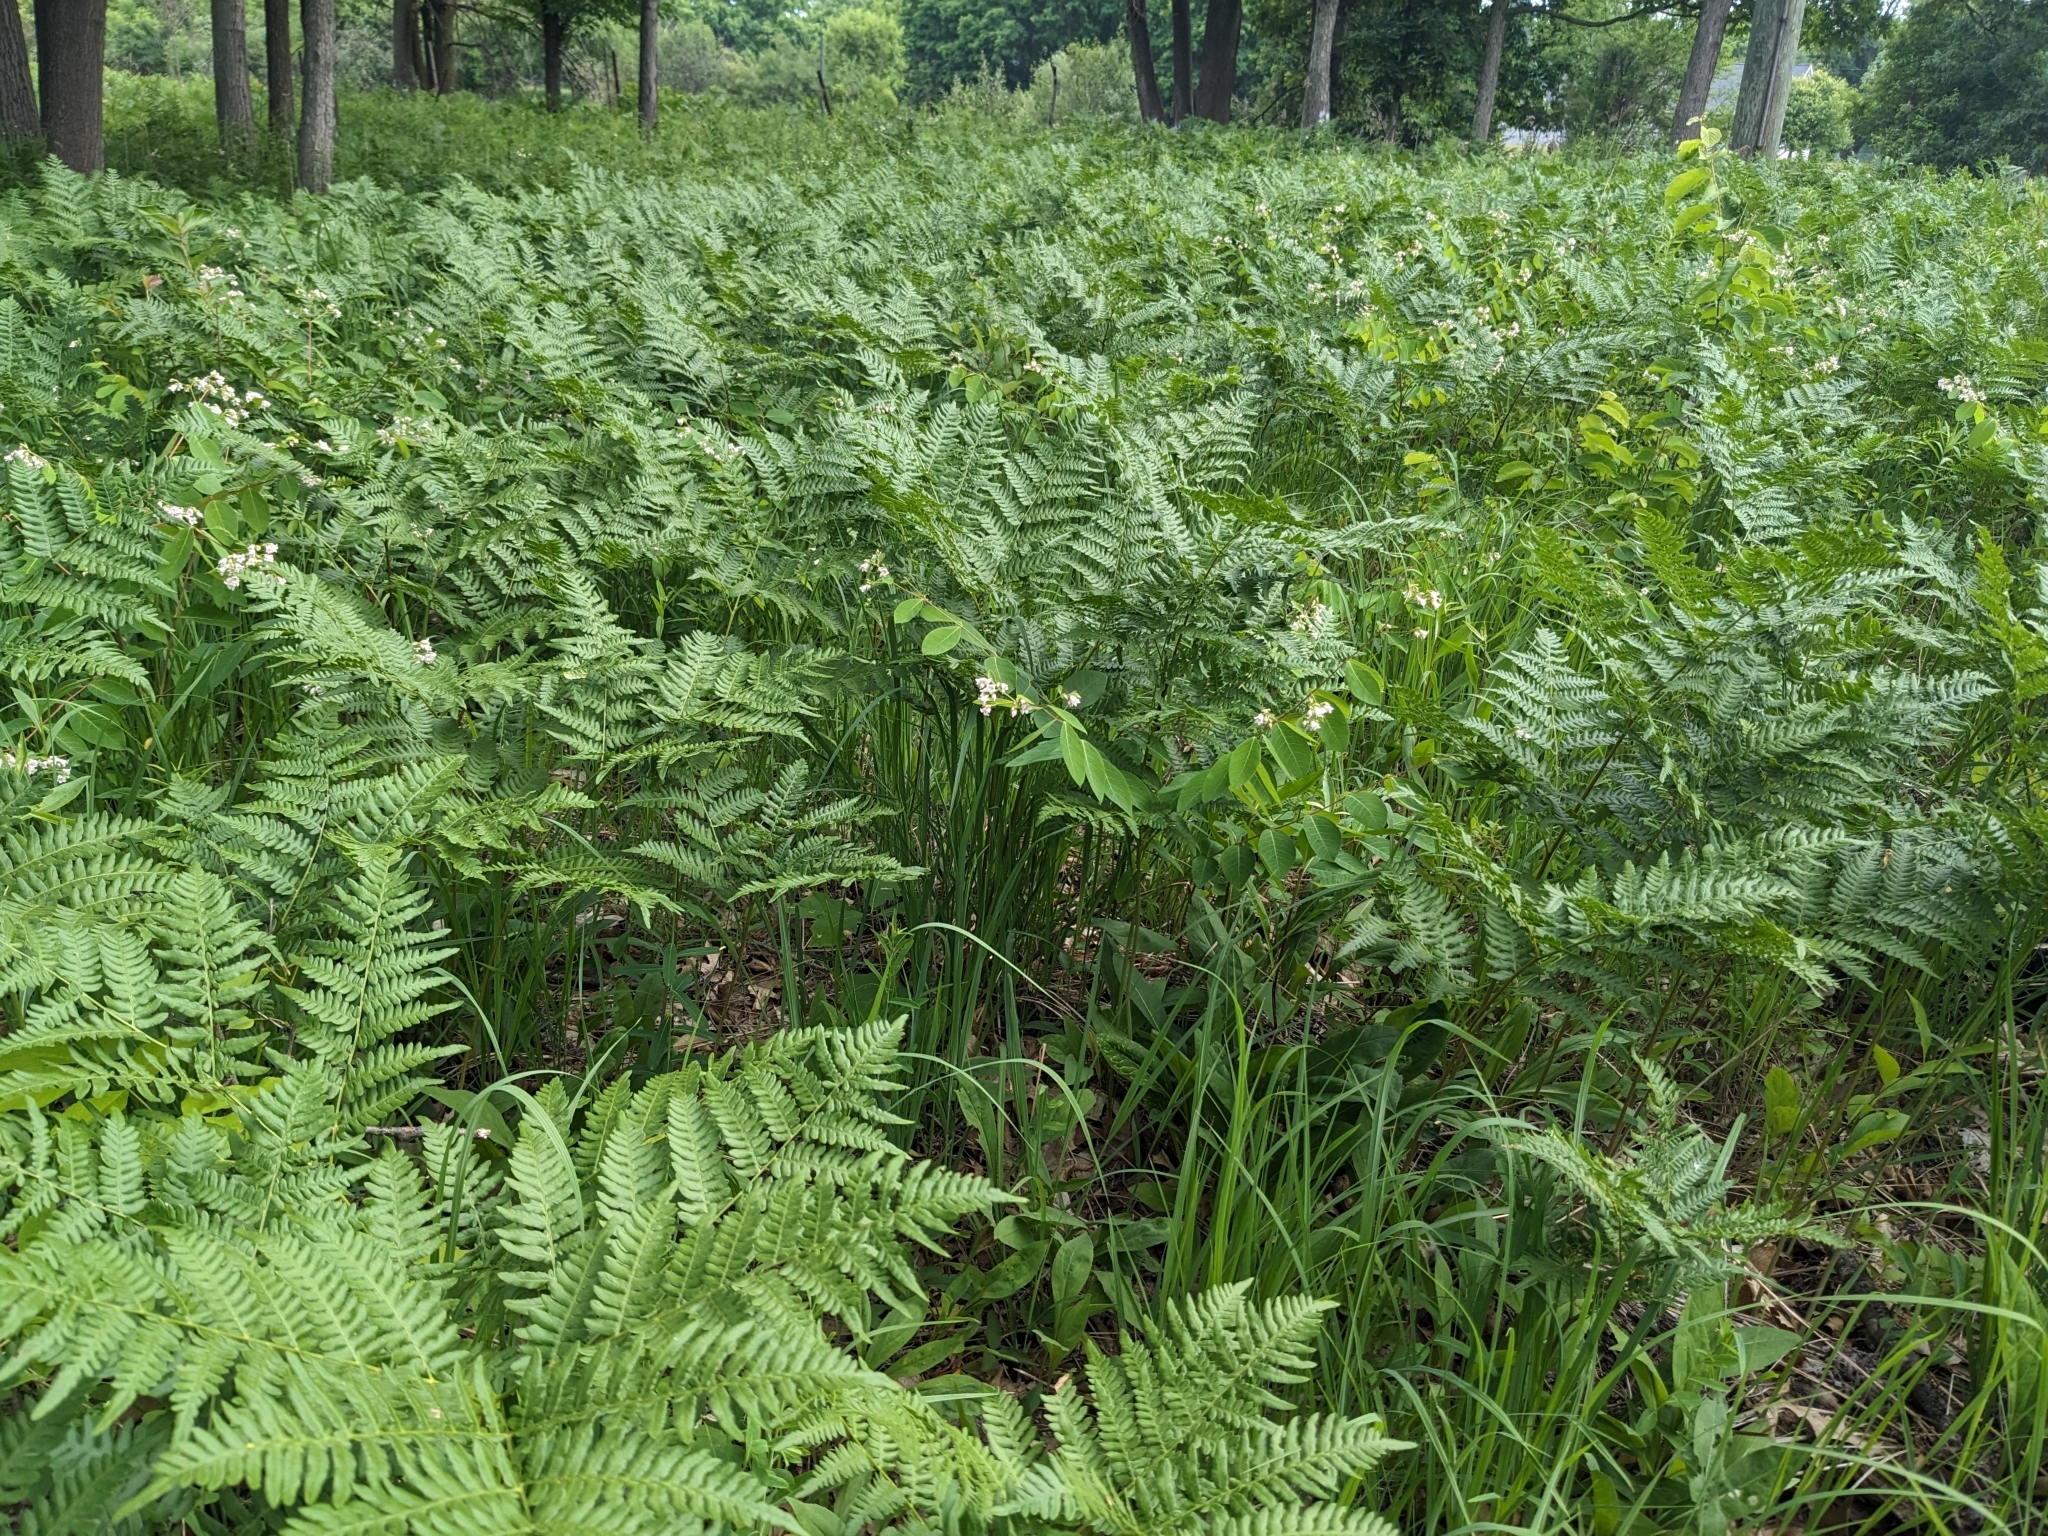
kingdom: Plantae
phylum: Tracheophyta
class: Polypodiopsida
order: Polypodiales
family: Dennstaedtiaceae
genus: Pteridium
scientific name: Pteridium aquilinum
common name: Bracken
